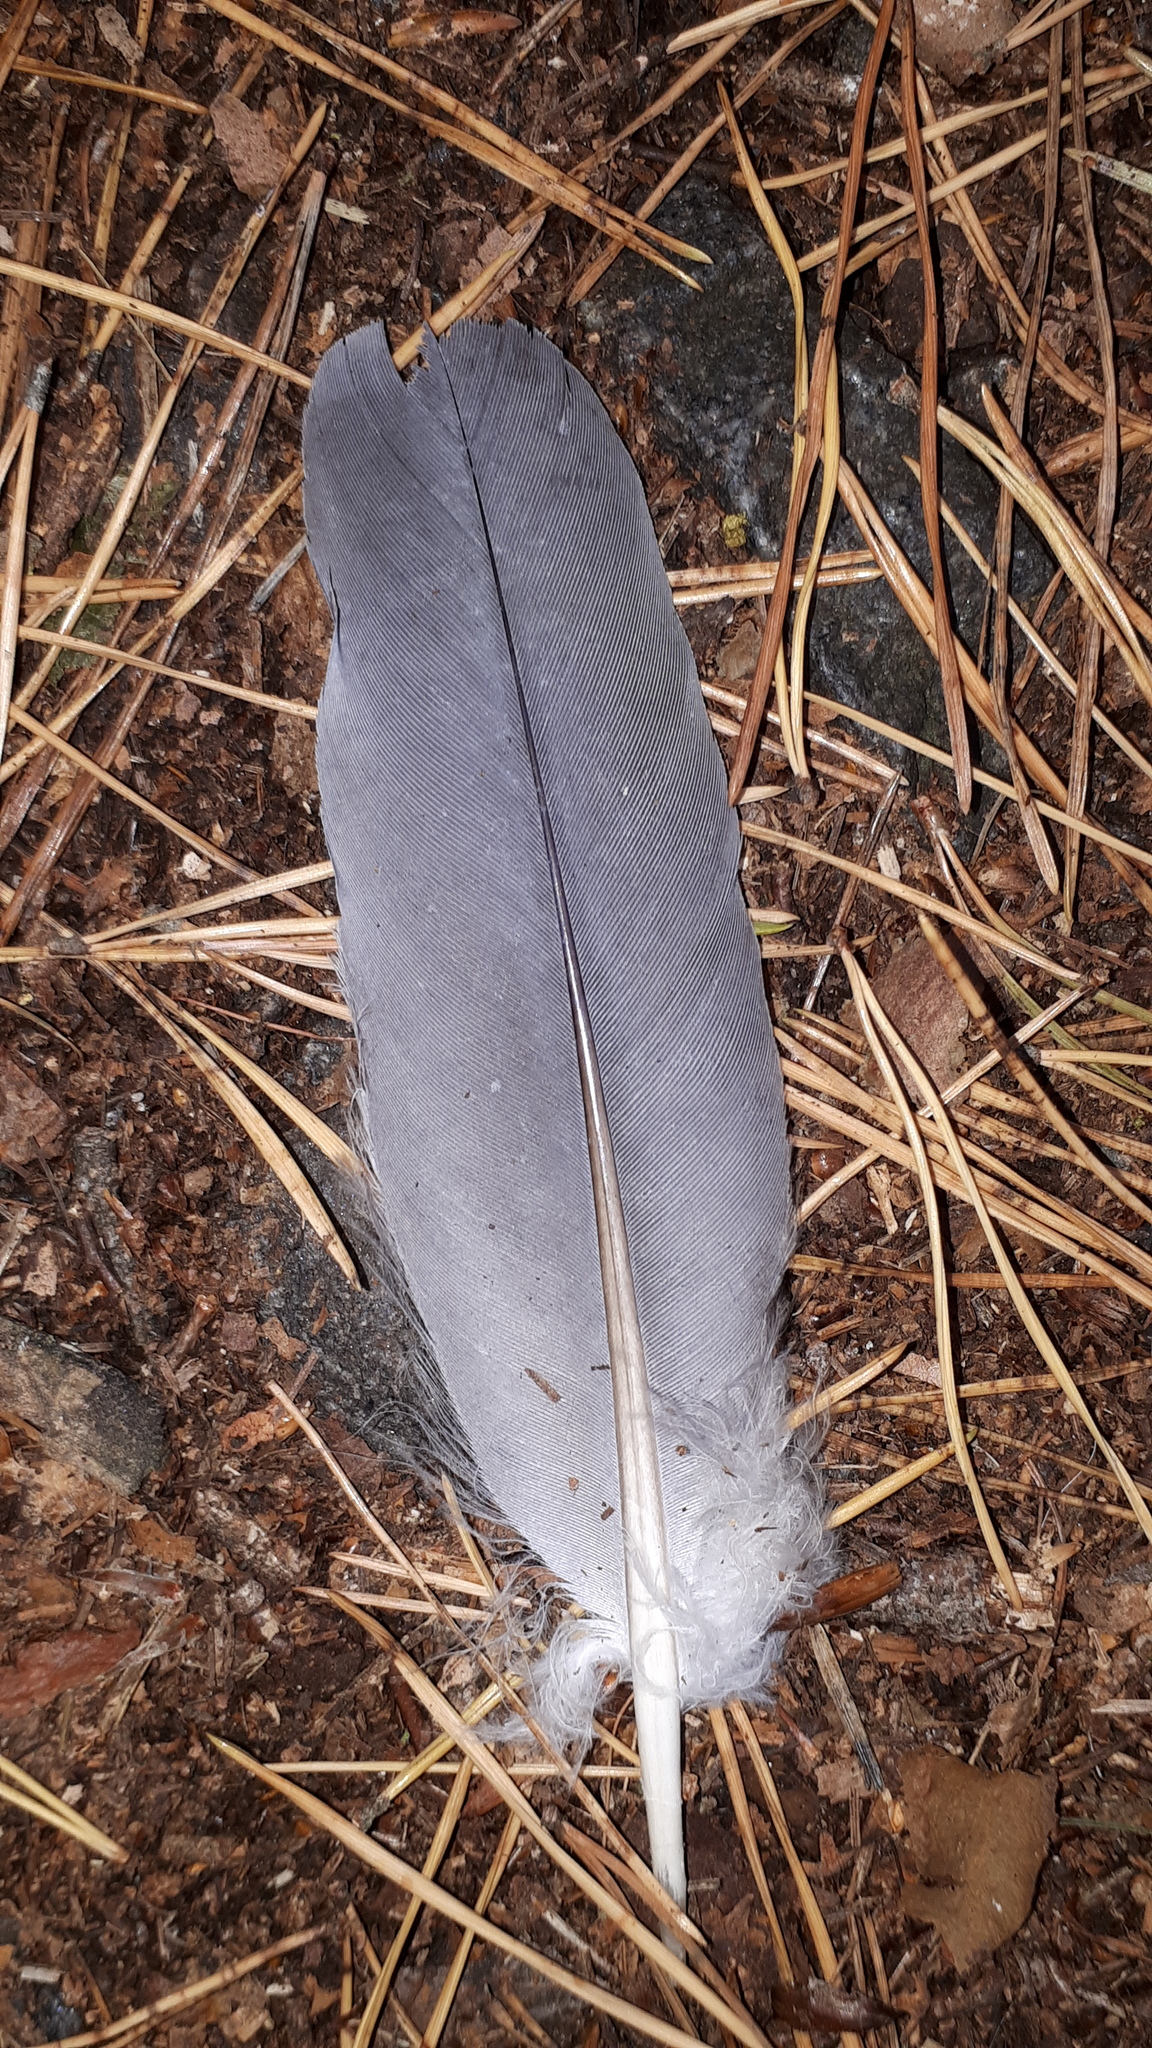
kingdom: Animalia
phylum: Chordata
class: Aves
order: Columbiformes
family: Columbidae
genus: Columba
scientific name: Columba palumbus
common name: Common wood pigeon
